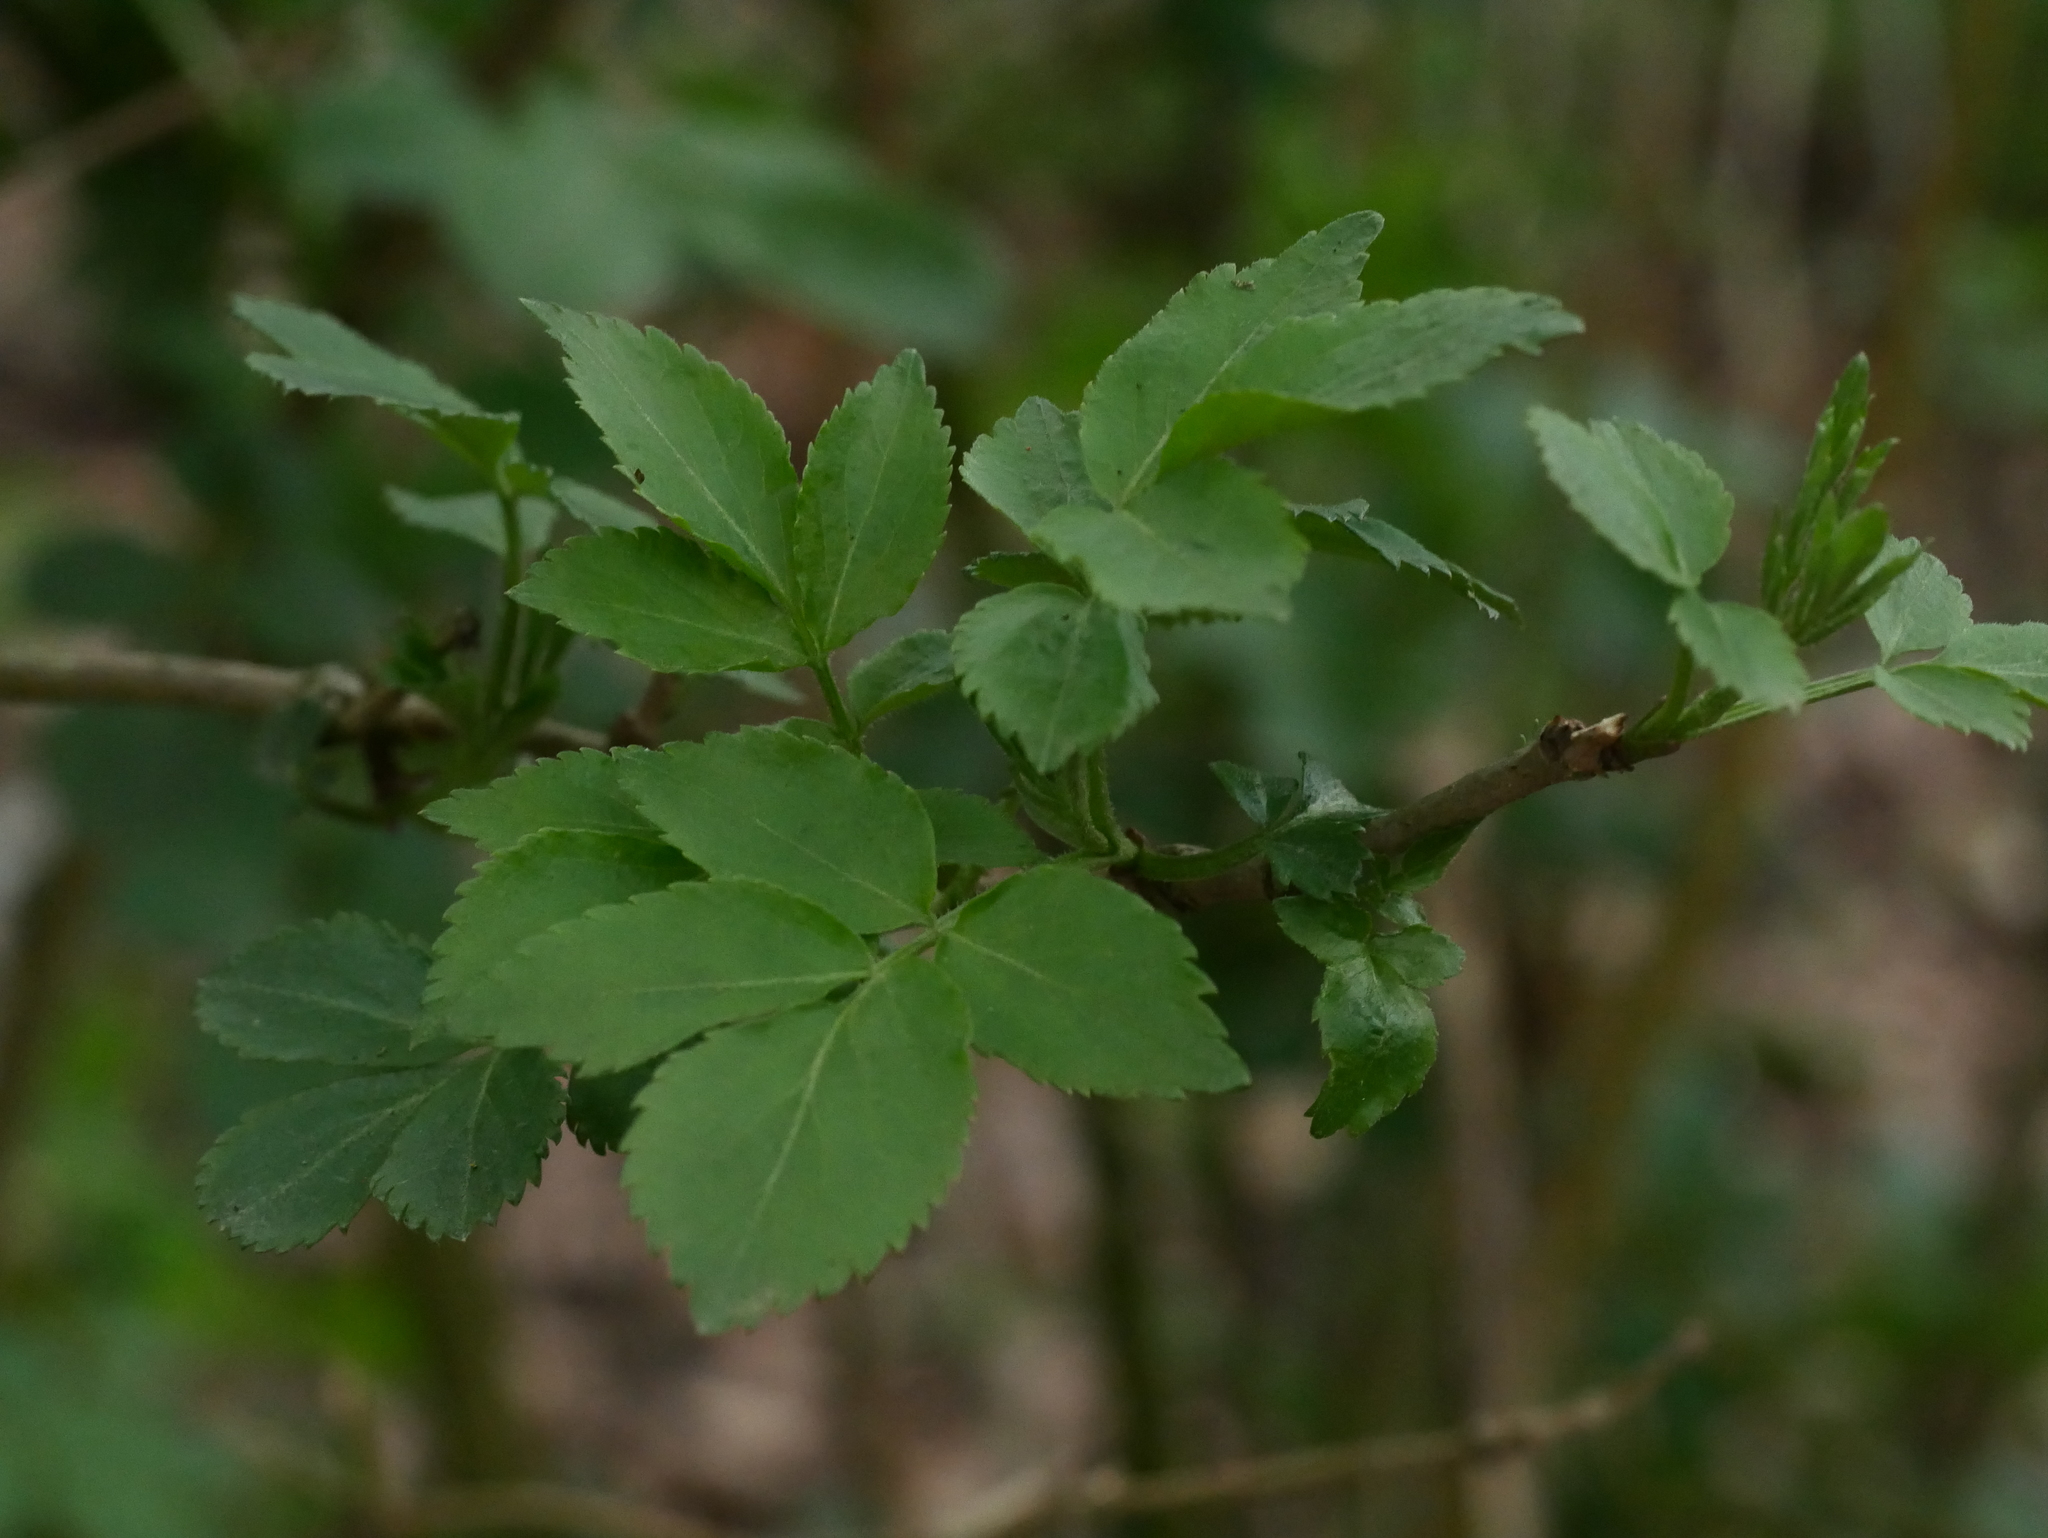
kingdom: Plantae
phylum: Tracheophyta
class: Magnoliopsida
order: Dipsacales
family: Viburnaceae
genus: Sambucus
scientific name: Sambucus nigra
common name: Elder
